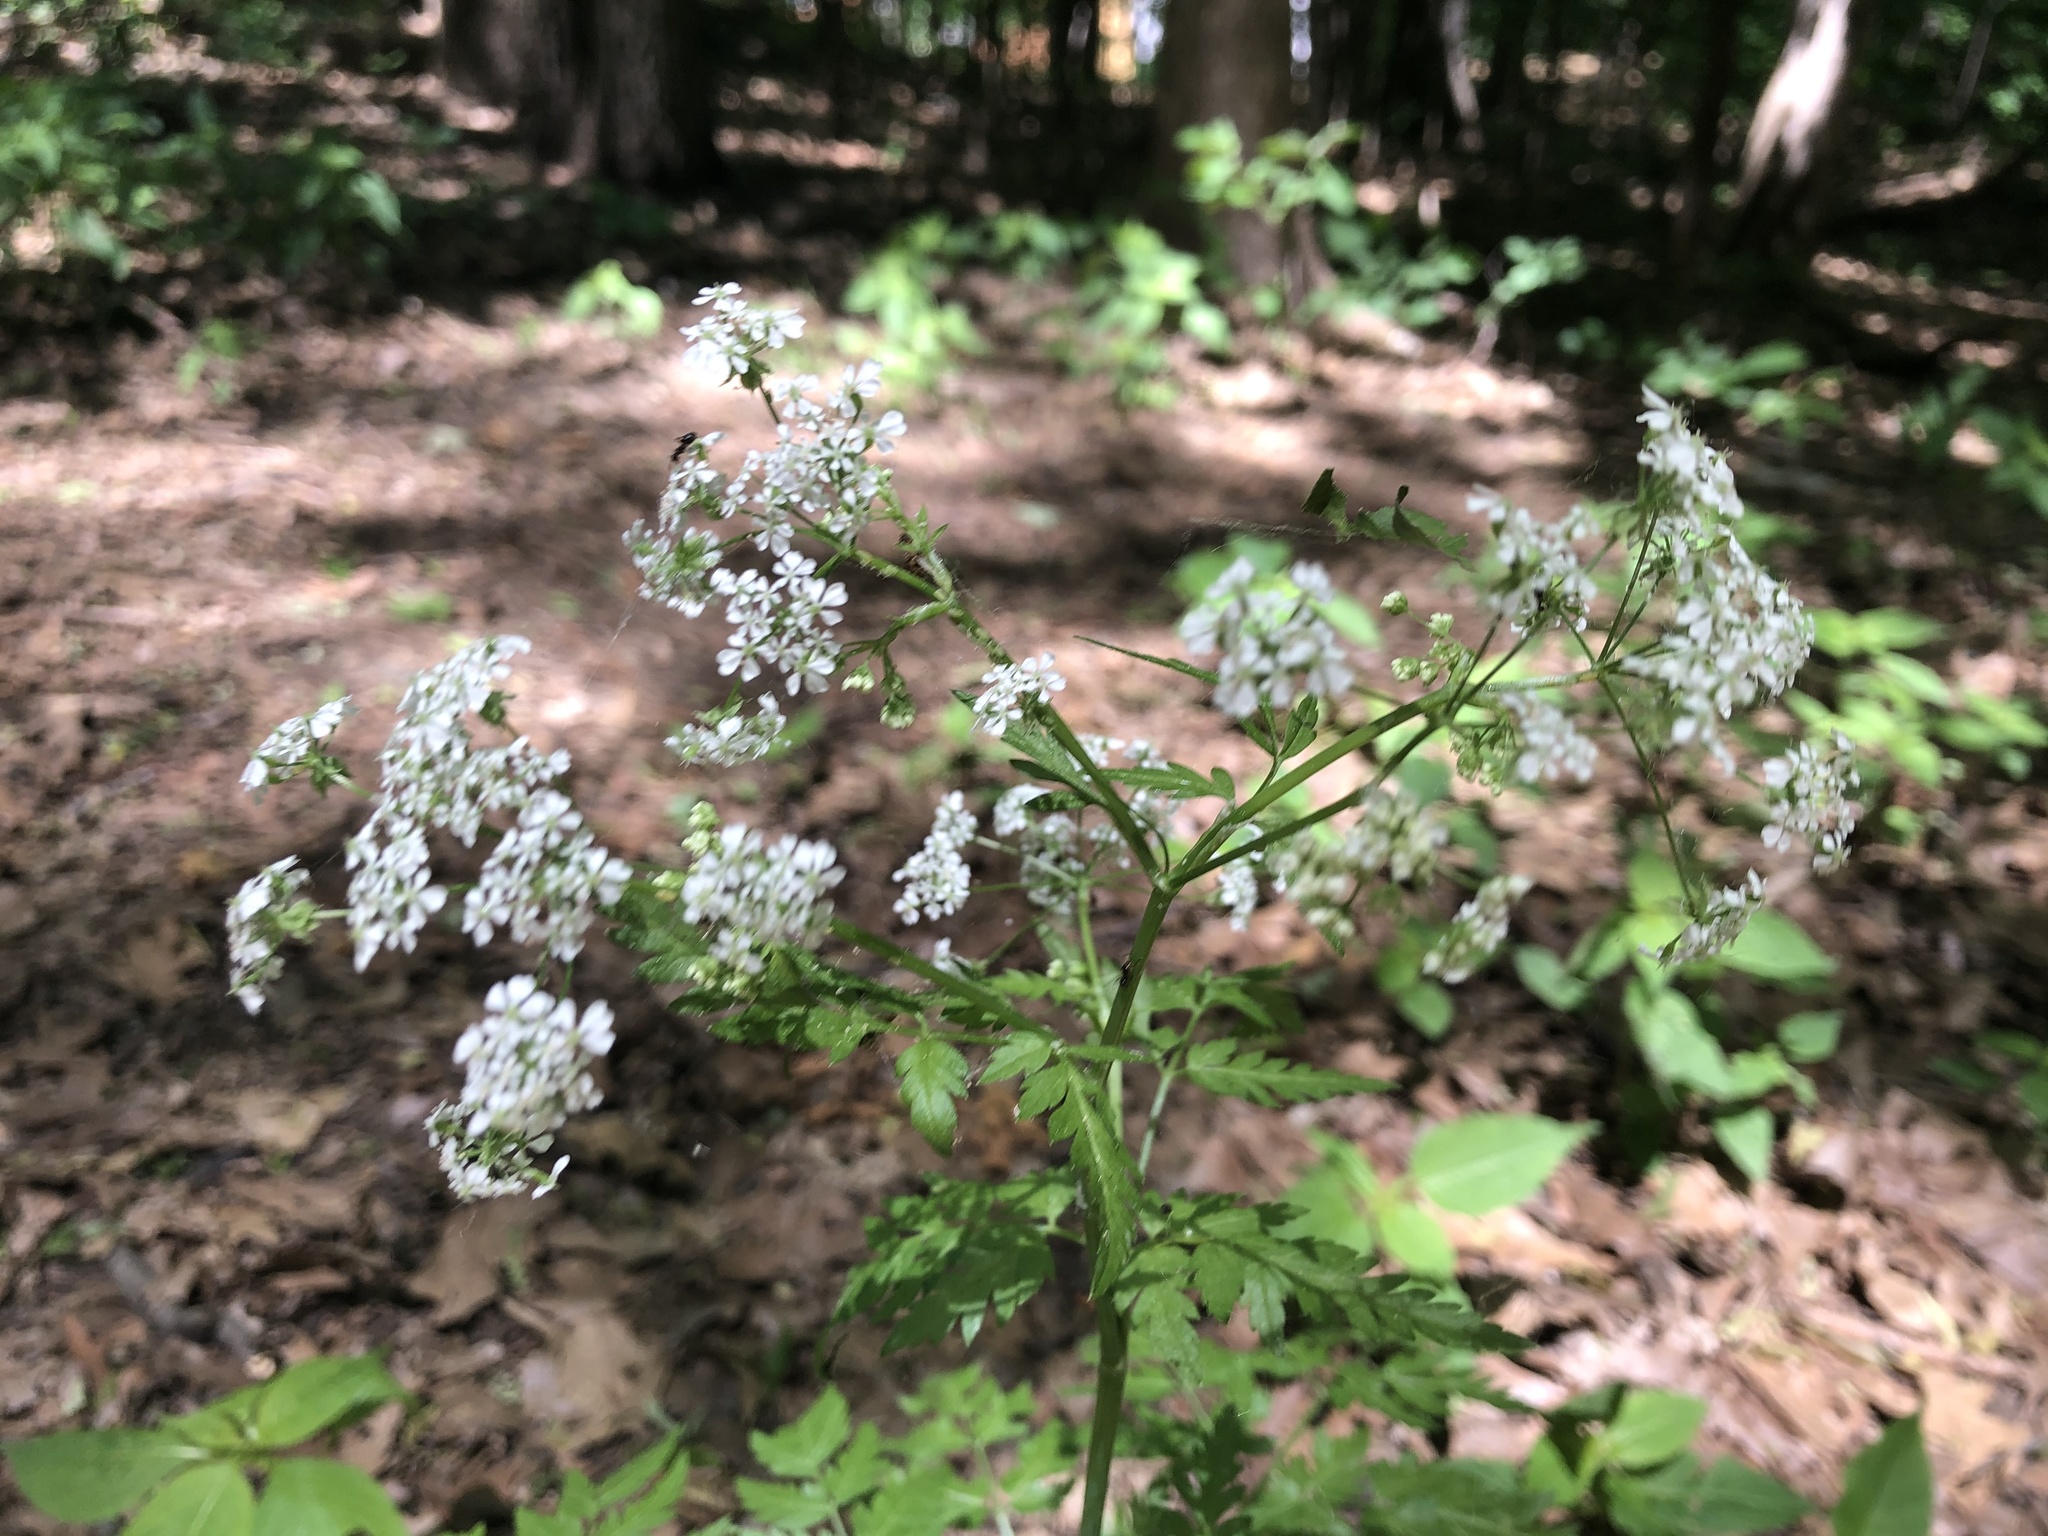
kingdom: Plantae
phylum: Tracheophyta
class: Magnoliopsida
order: Apiales
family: Apiaceae
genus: Anthriscus
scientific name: Anthriscus sylvestris
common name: Cow parsley
